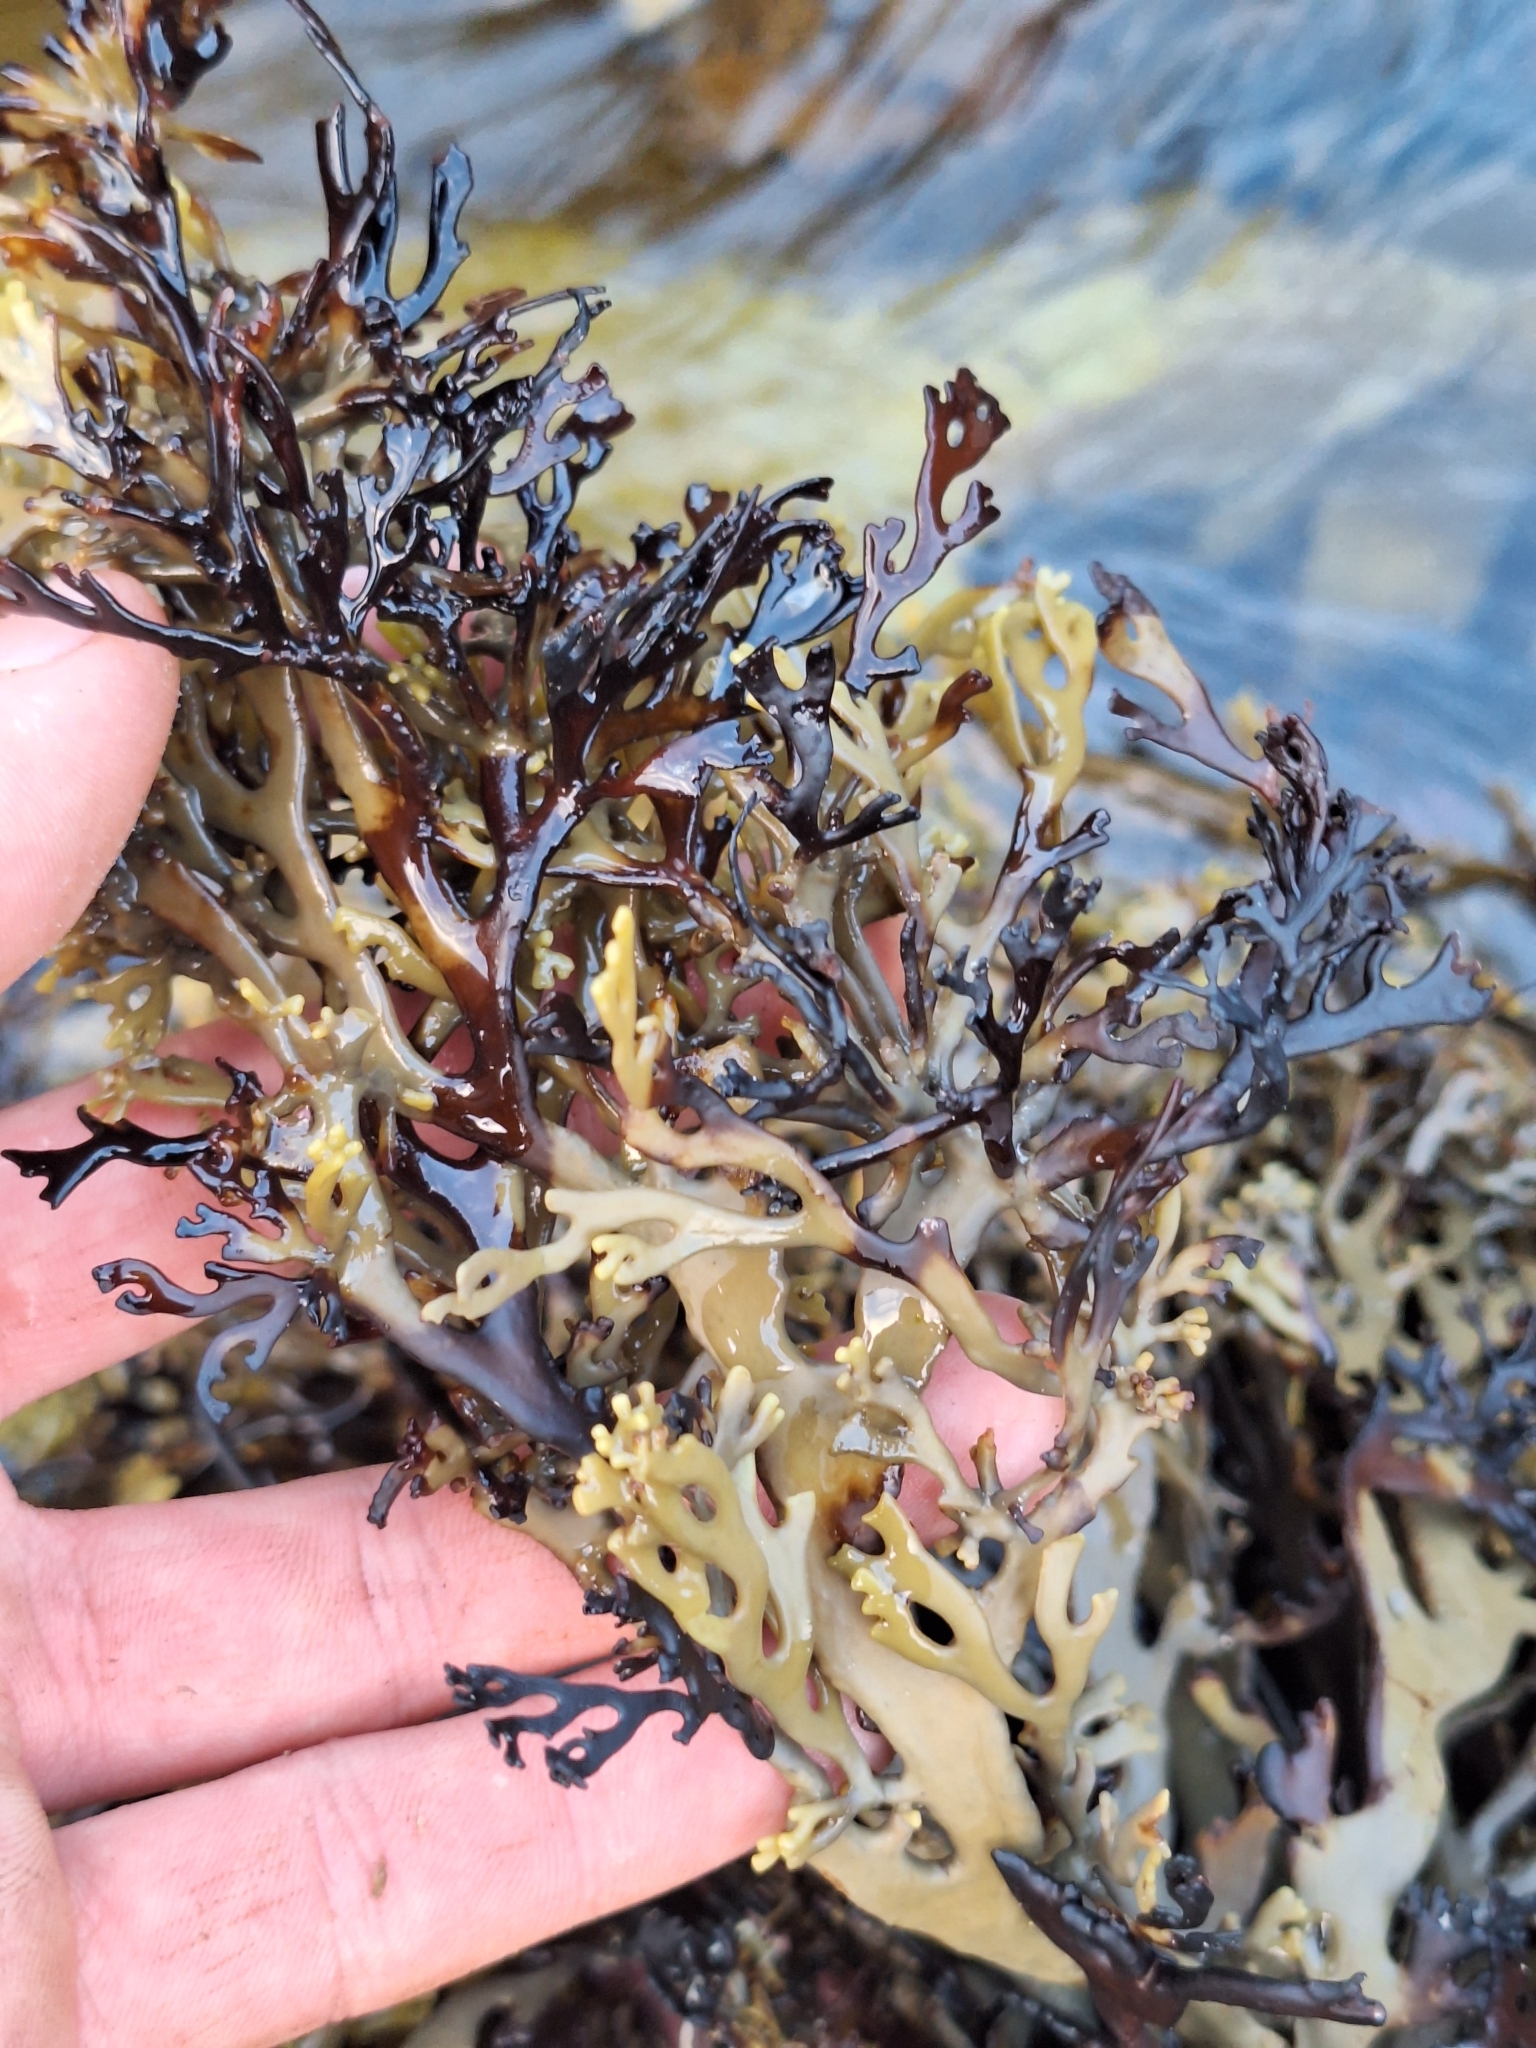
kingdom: Chromista
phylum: Ochrophyta
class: Phaeophyceae
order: Fucales
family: Xiphophoraceae
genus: Xiphophora
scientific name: Xiphophora chondrophylla
